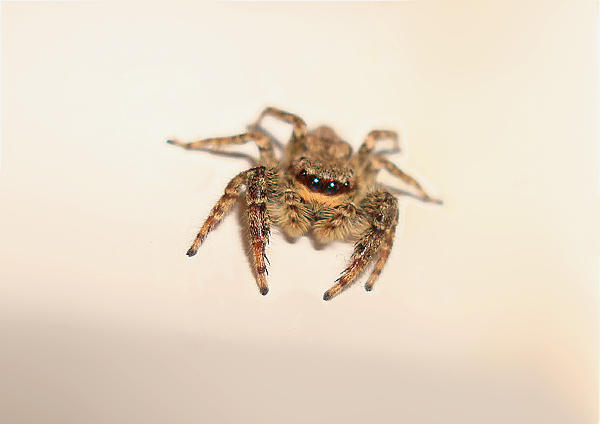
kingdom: Animalia
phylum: Arthropoda
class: Arachnida
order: Araneae
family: Salticidae
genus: Marpissa
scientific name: Marpissa muscosa
